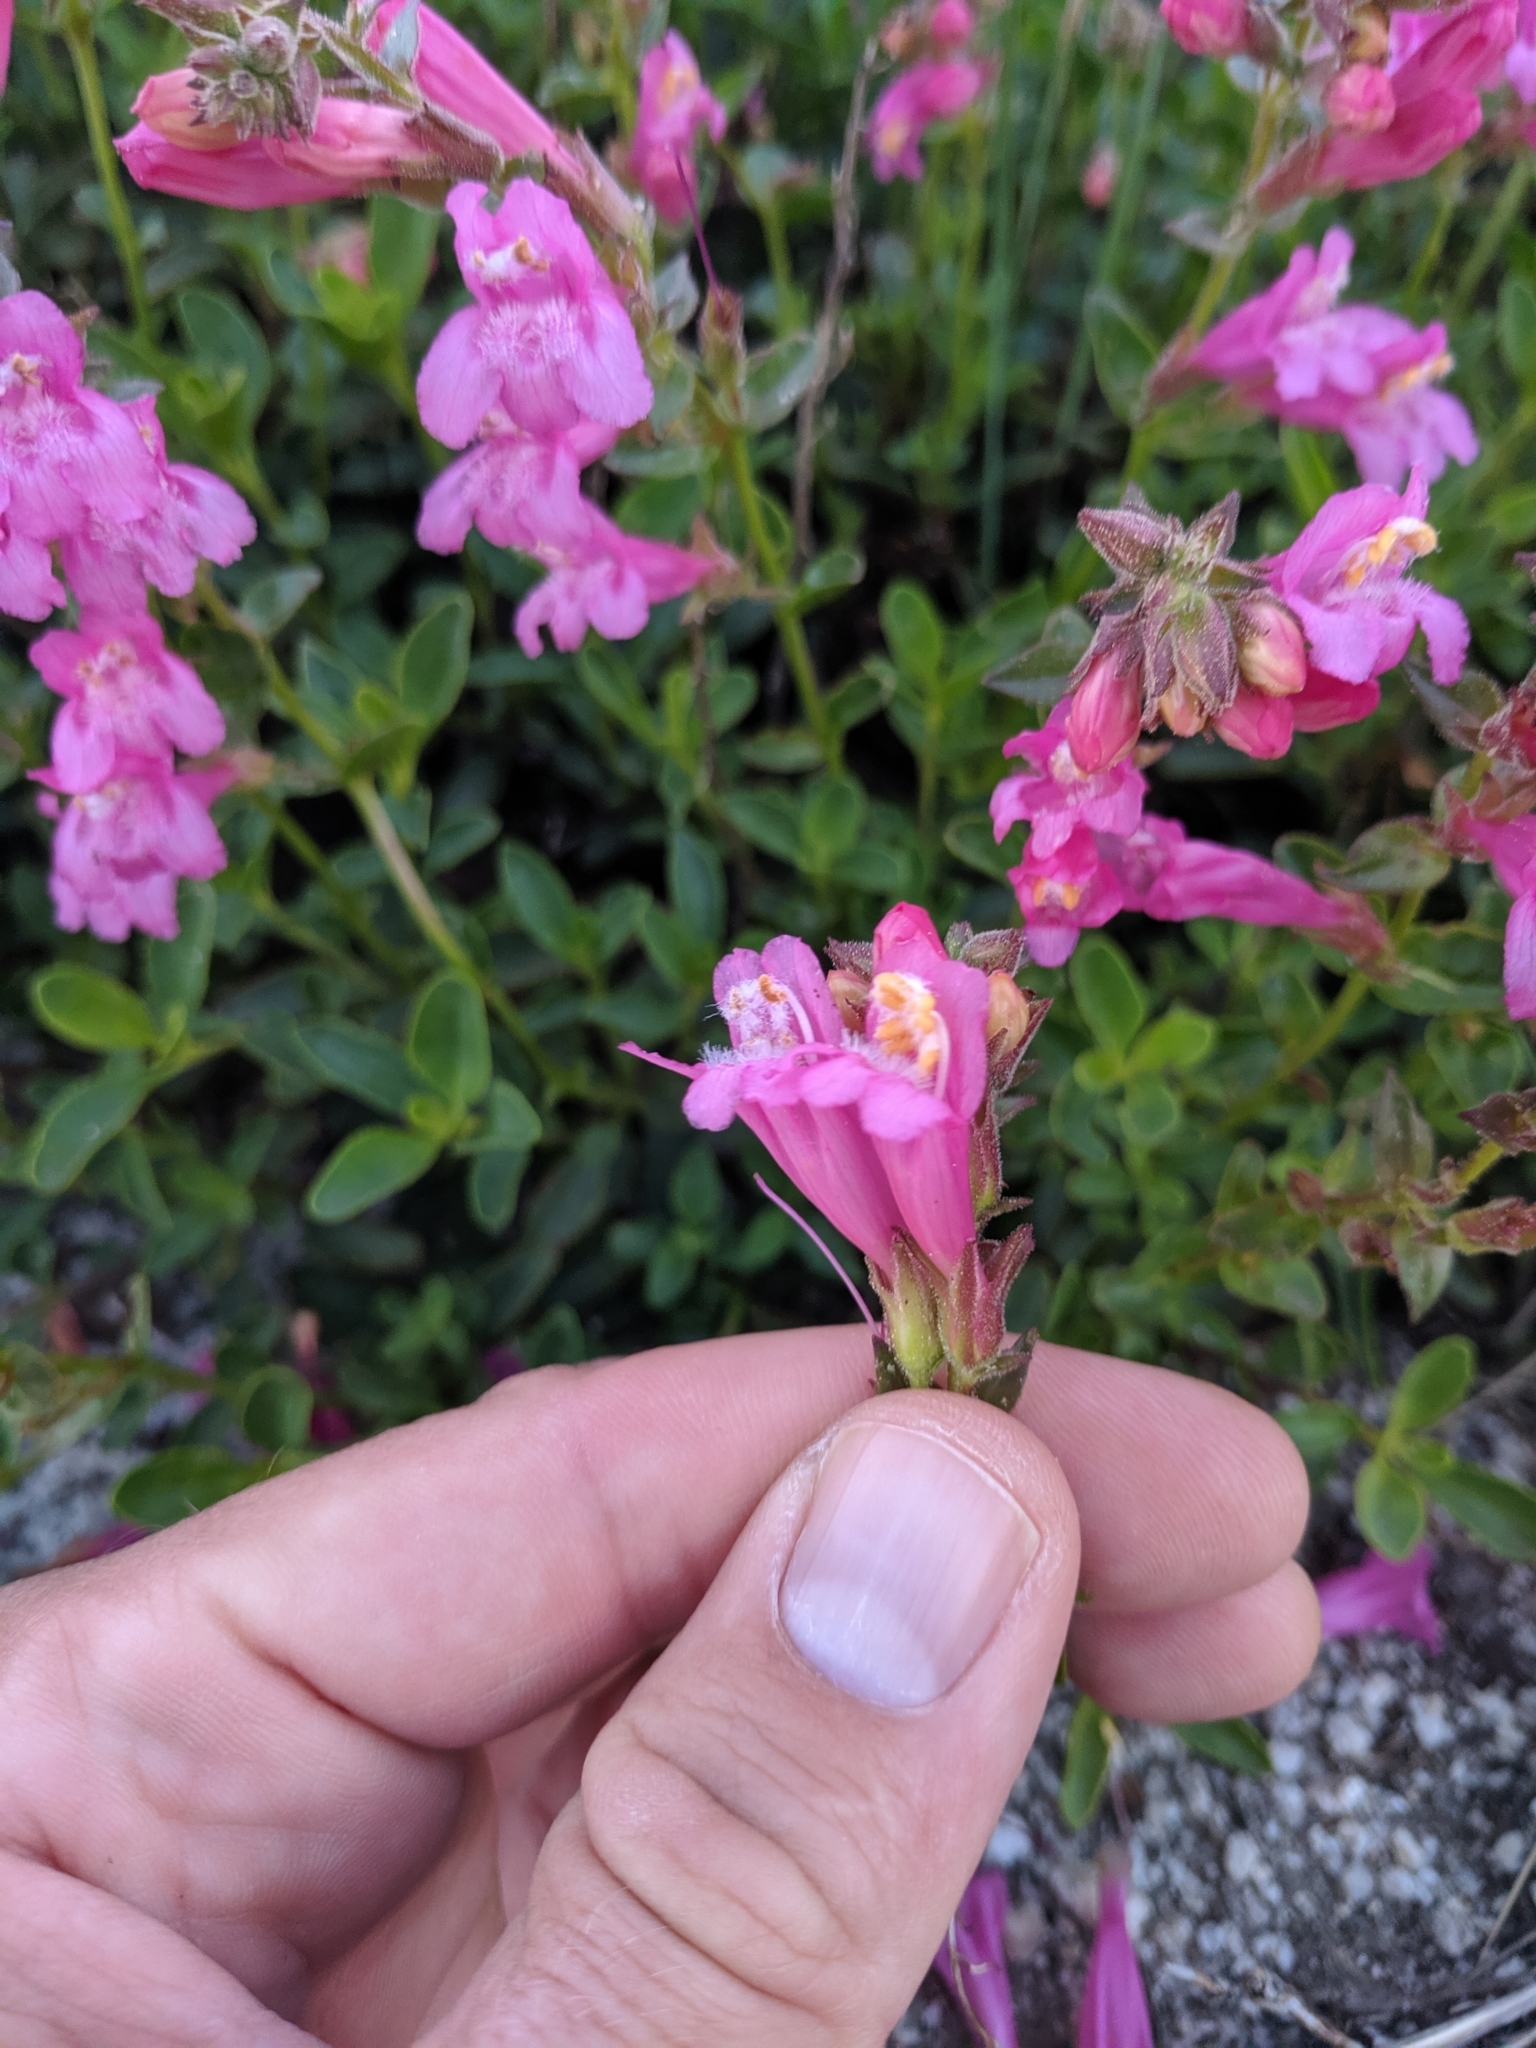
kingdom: Plantae
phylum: Tracheophyta
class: Magnoliopsida
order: Lamiales
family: Plantaginaceae
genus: Penstemon
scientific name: Penstemon newberryi
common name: Mountain-pride
